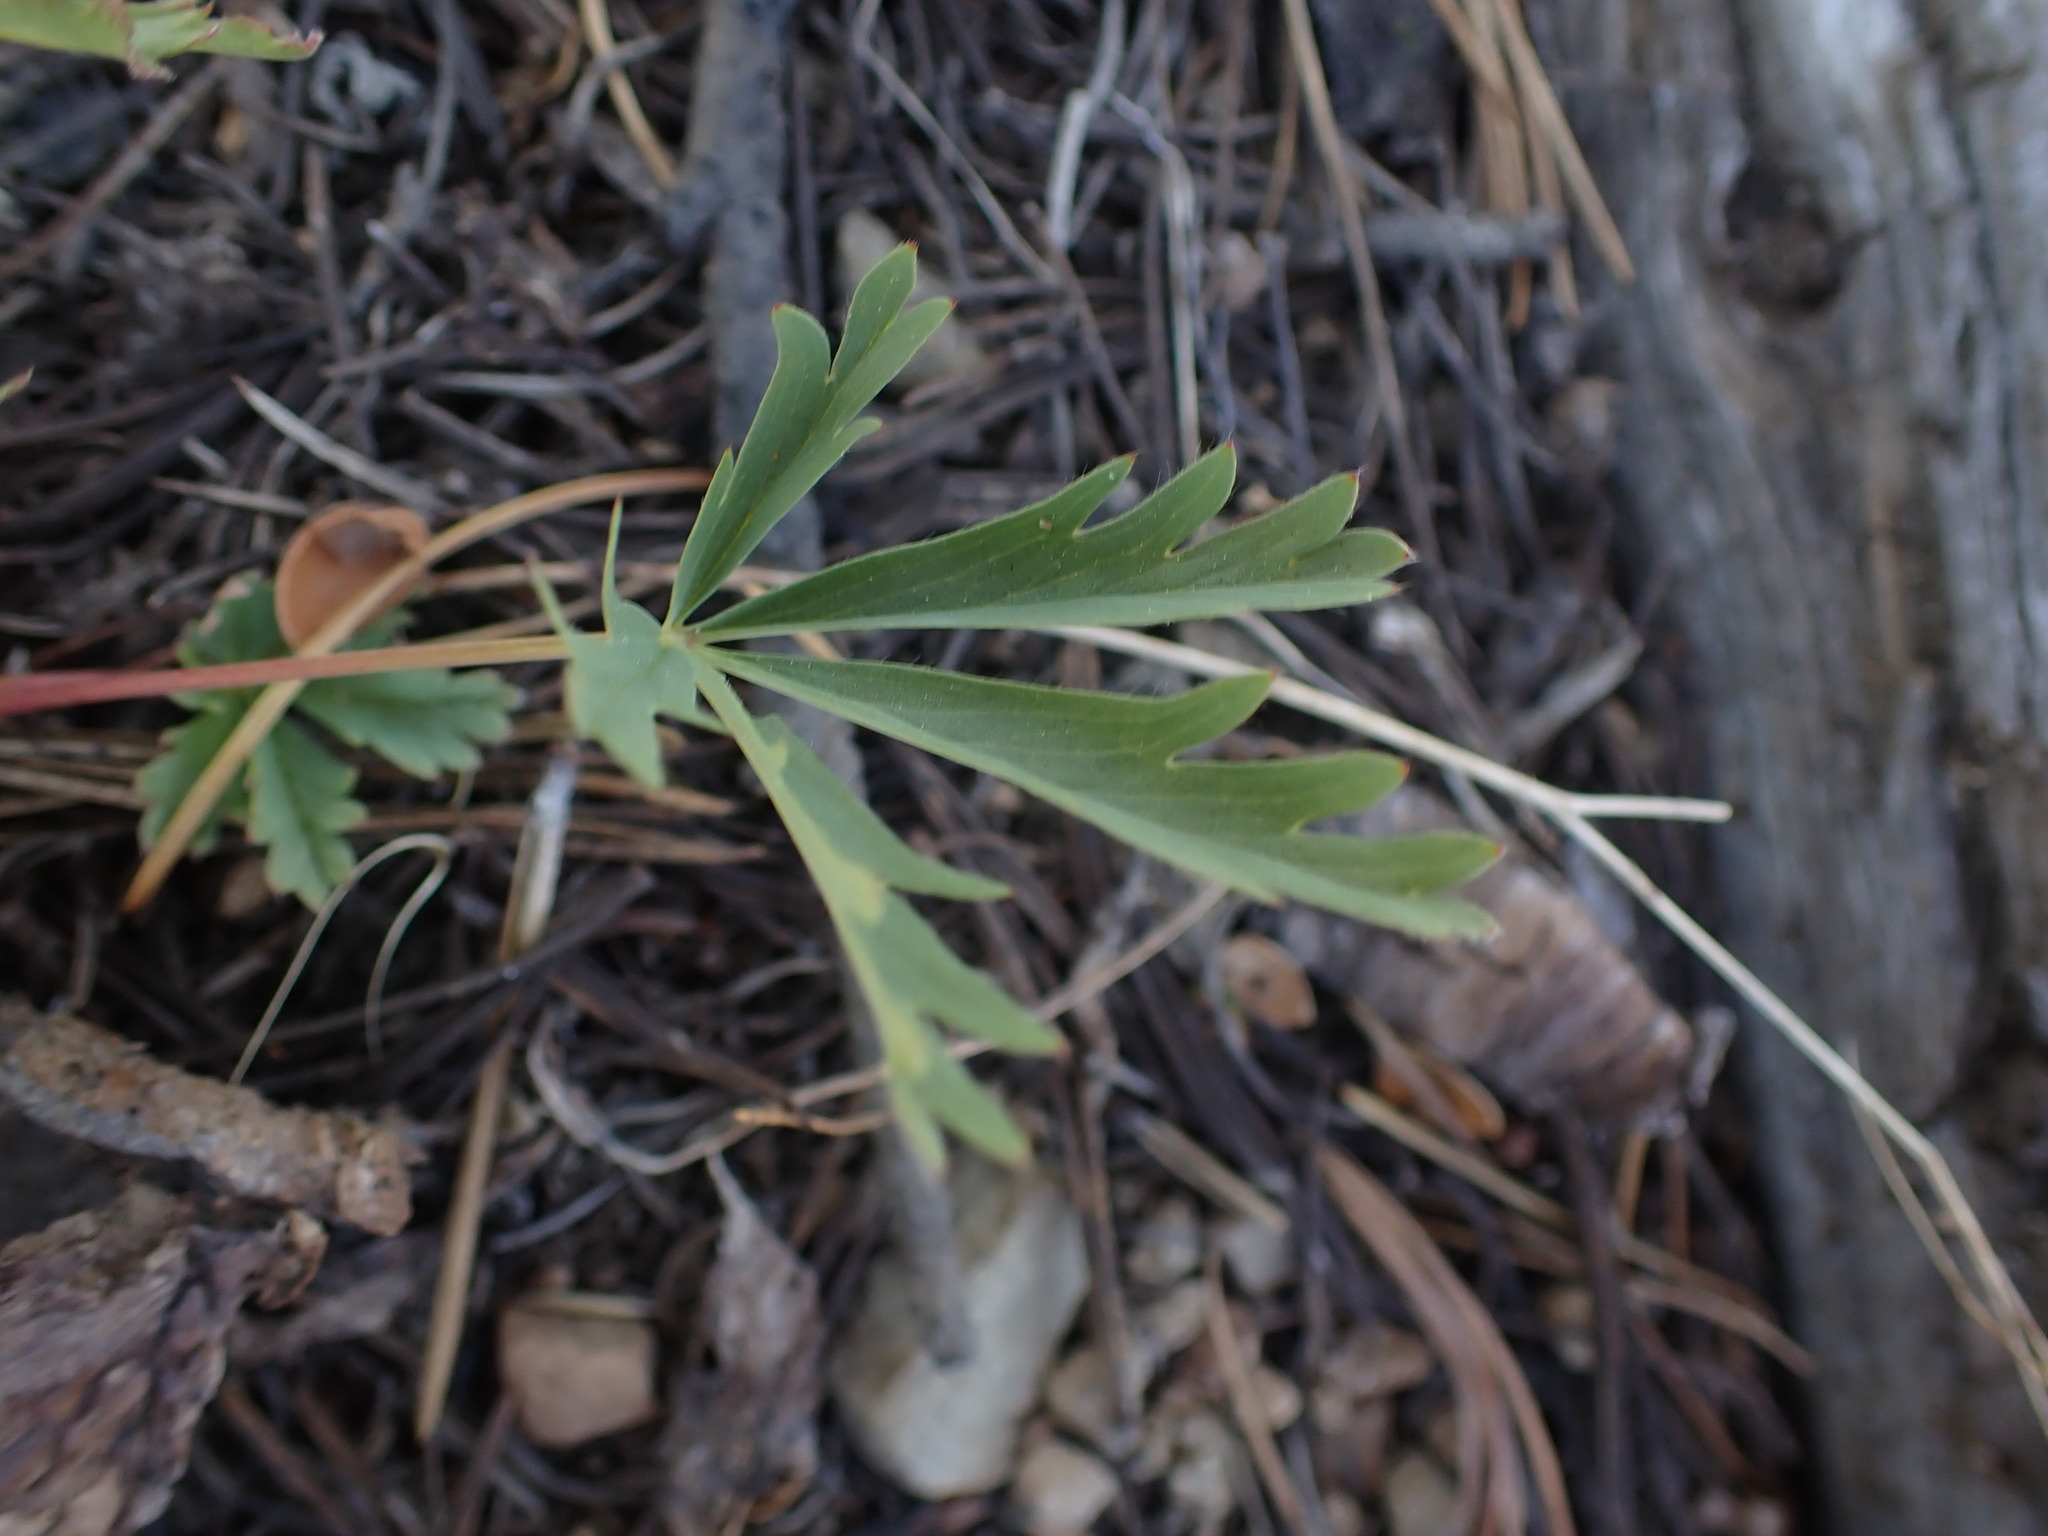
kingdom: Plantae
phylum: Tracheophyta
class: Magnoliopsida
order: Rosales
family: Rosaceae
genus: Potentilla
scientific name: Potentilla glaucophylla
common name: Blue-leaved cinquefoil
